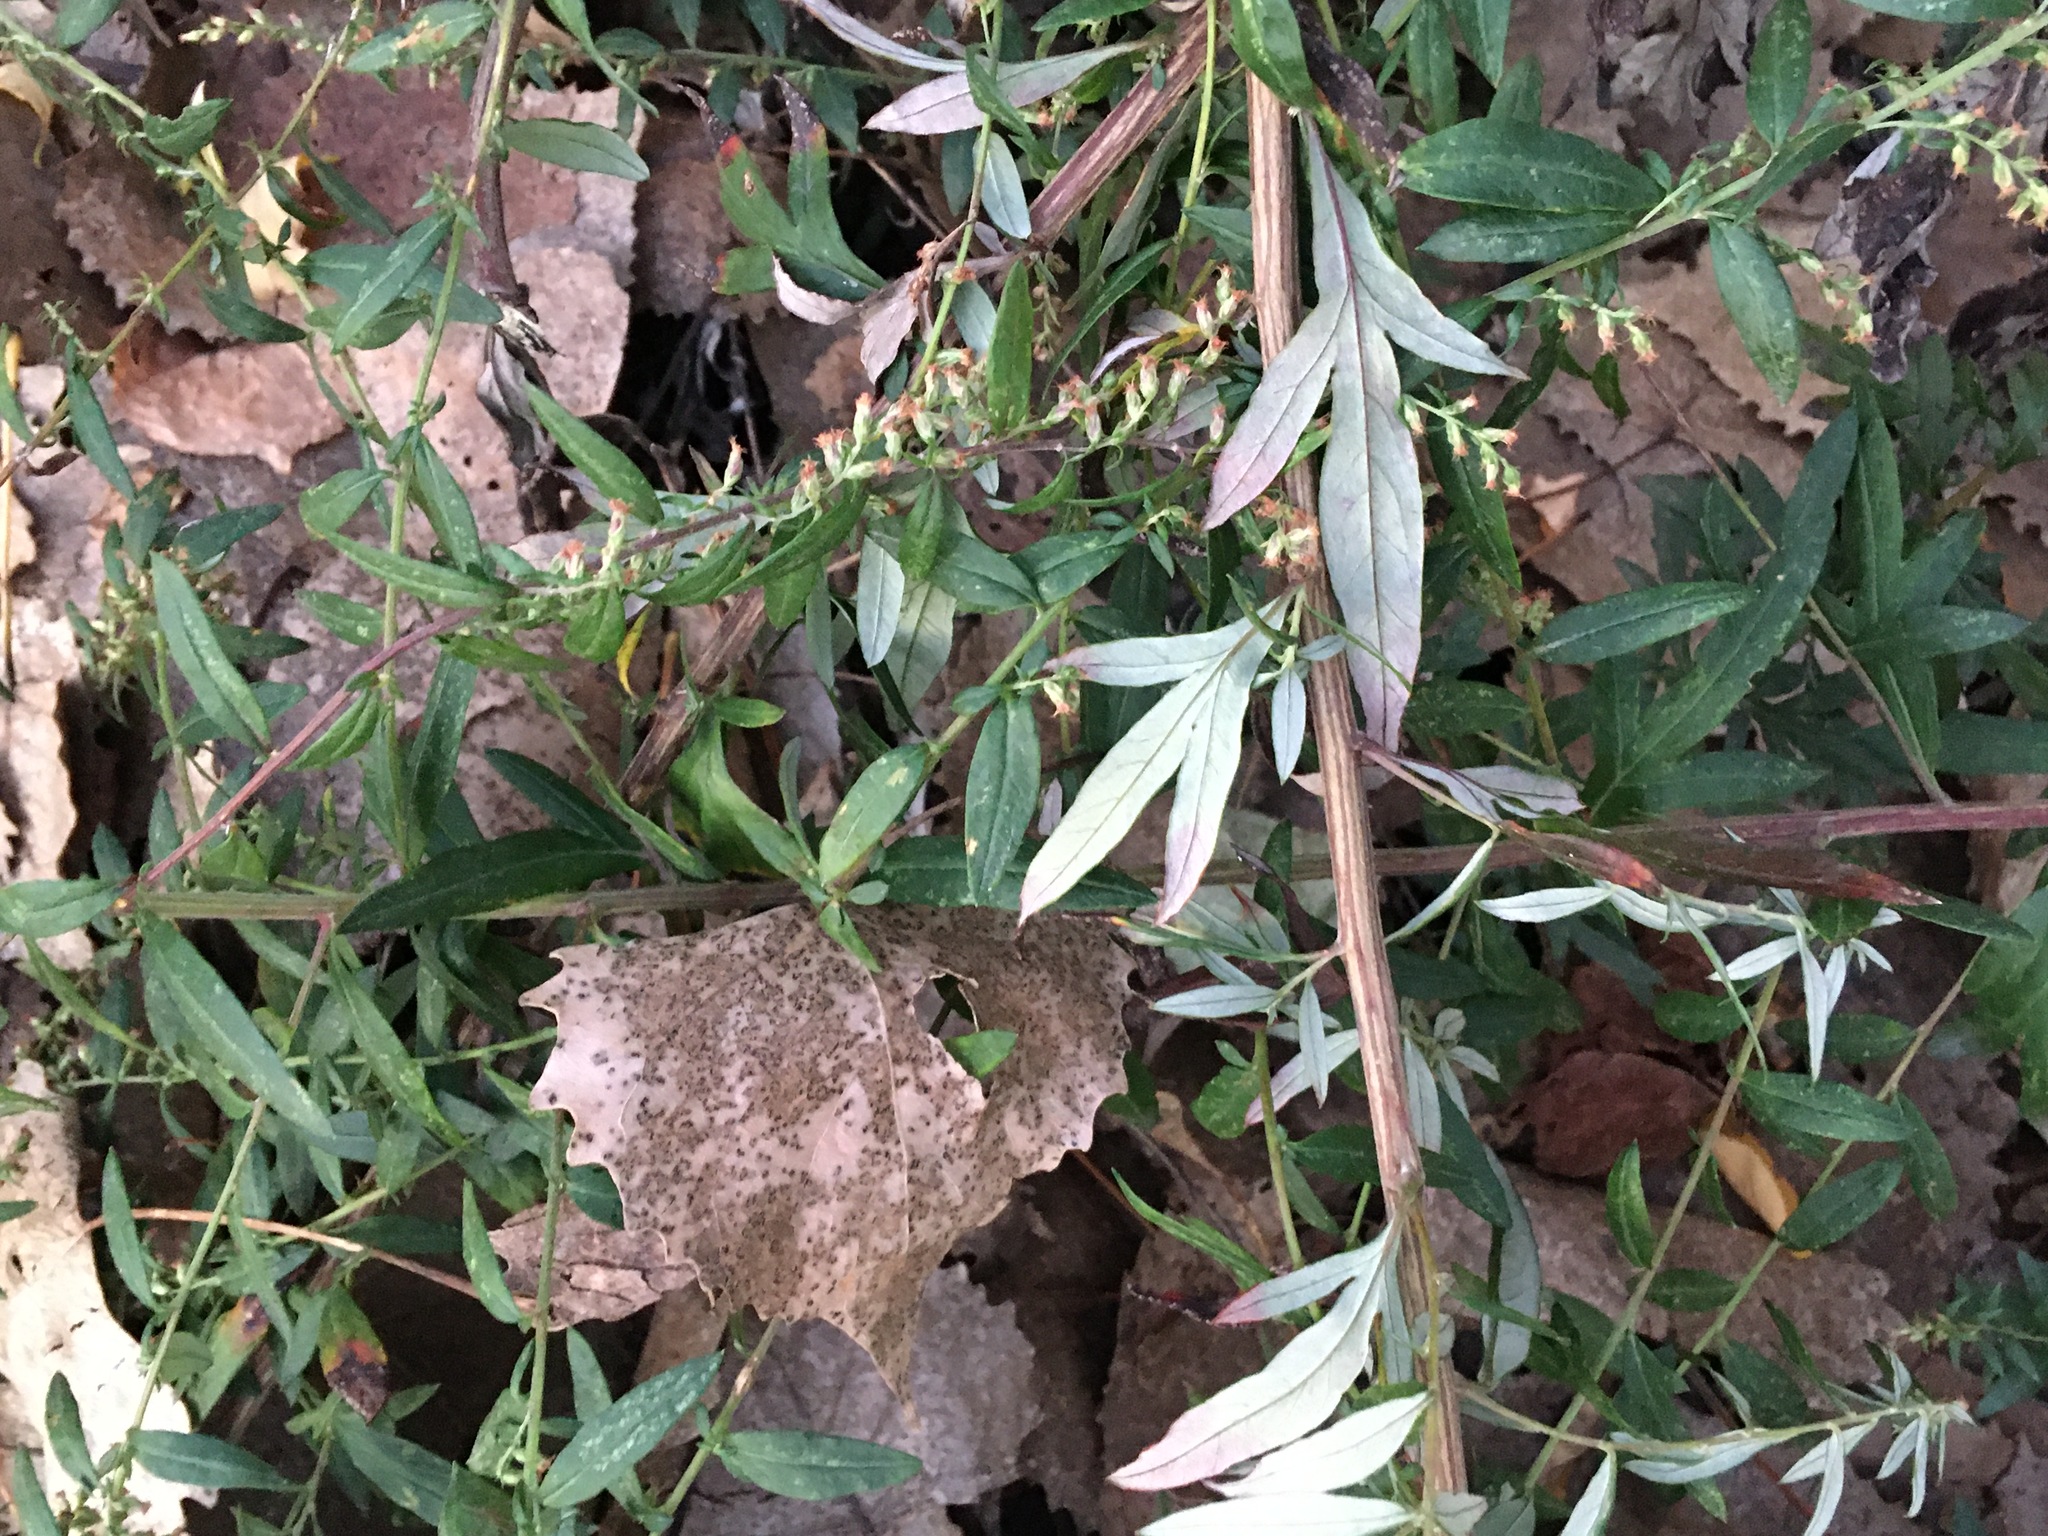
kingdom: Plantae
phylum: Tracheophyta
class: Magnoliopsida
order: Asterales
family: Asteraceae
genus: Artemisia
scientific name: Artemisia vulgaris
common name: Mugwort
